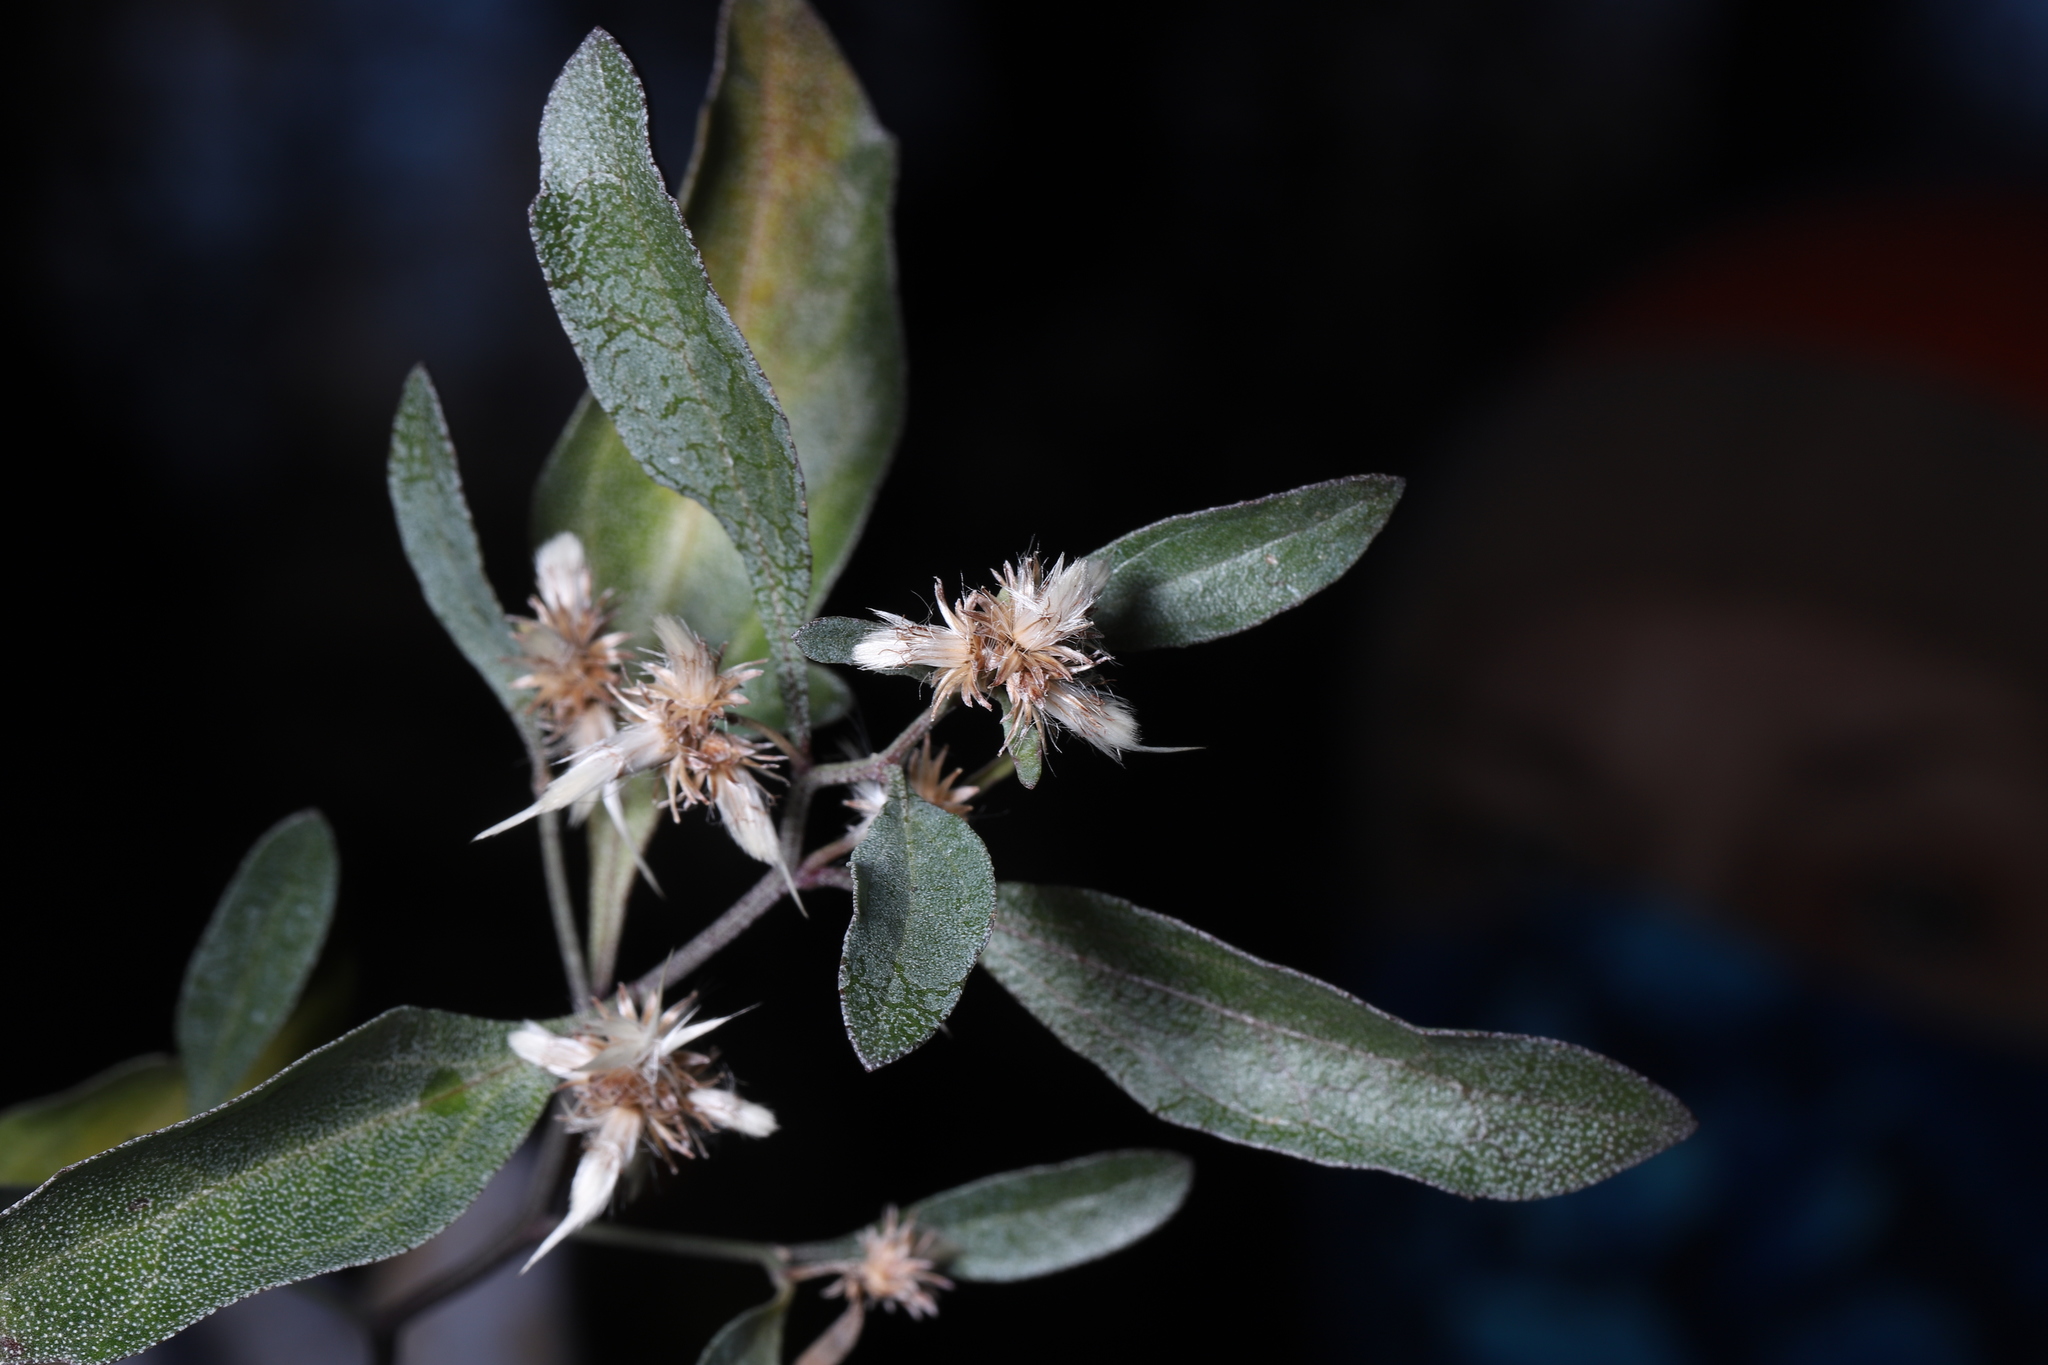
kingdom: Plantae
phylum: Tracheophyta
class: Magnoliopsida
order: Asterales
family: Asteraceae
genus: Baccharis
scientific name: Baccharis halimifolia
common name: Eastern baccharis
